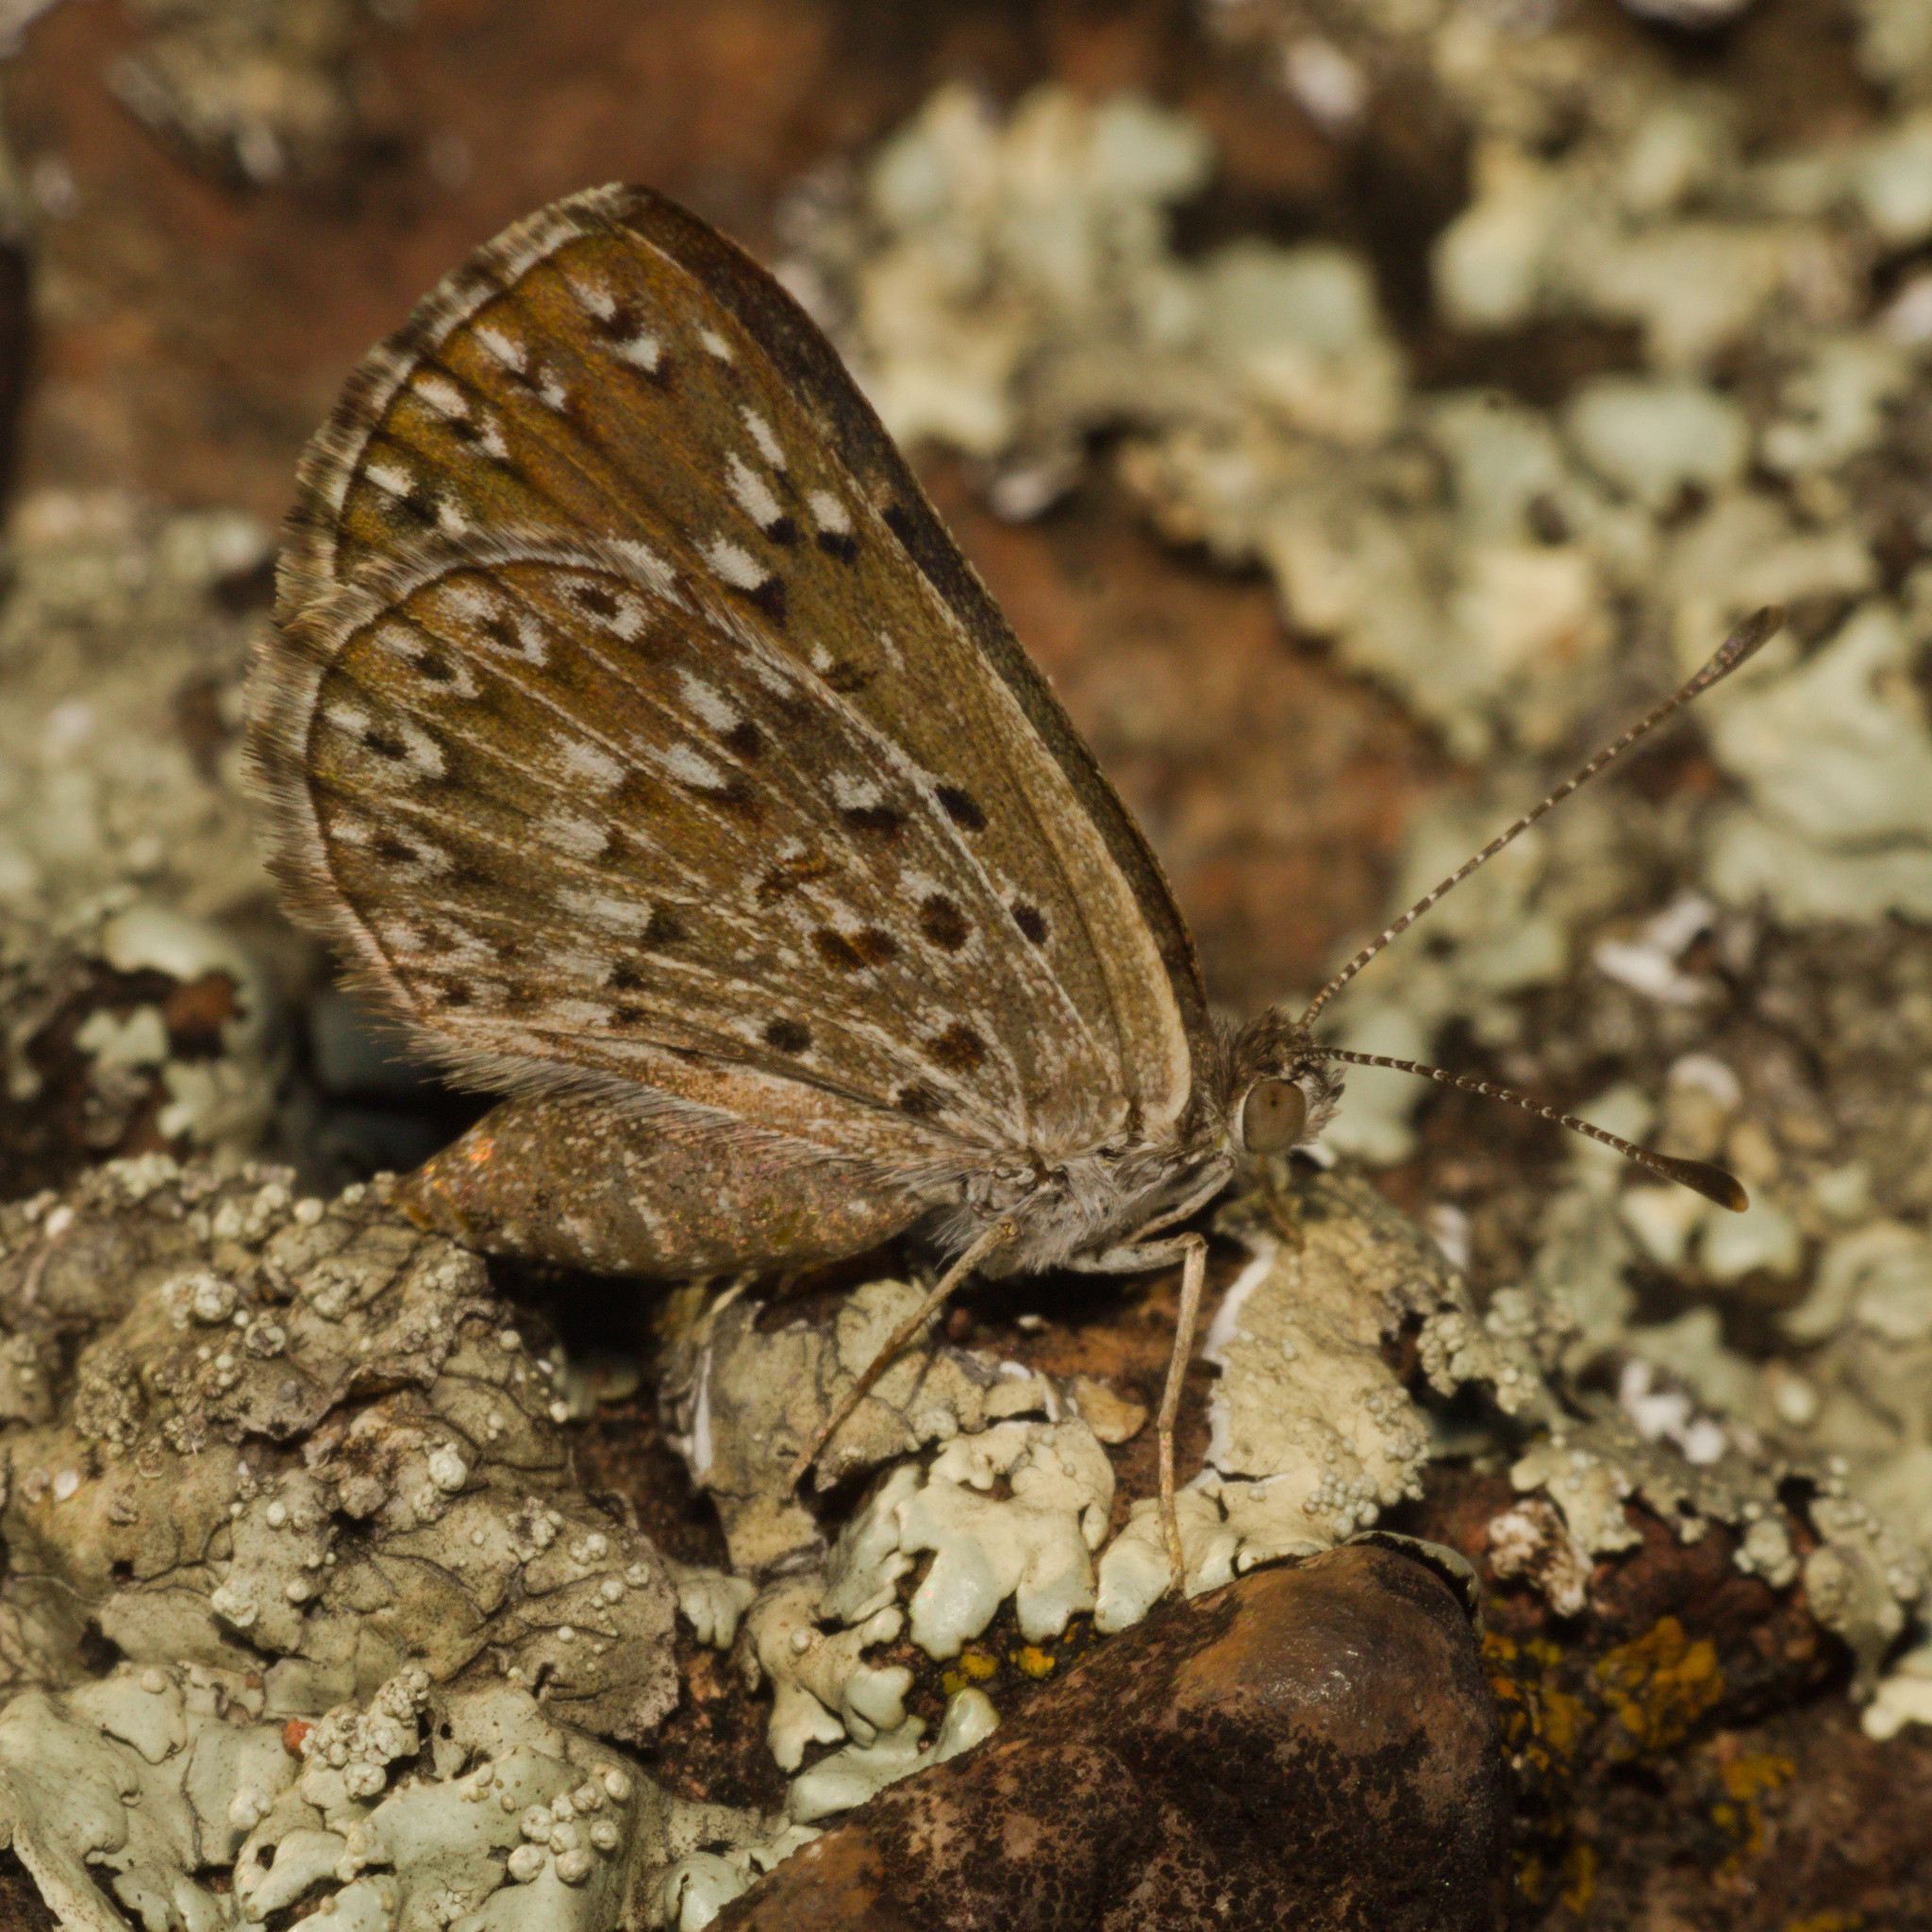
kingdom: Animalia
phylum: Arthropoda
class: Insecta
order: Lepidoptera
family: Riodinidae
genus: Zabuella
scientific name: Zabuella tenellus
